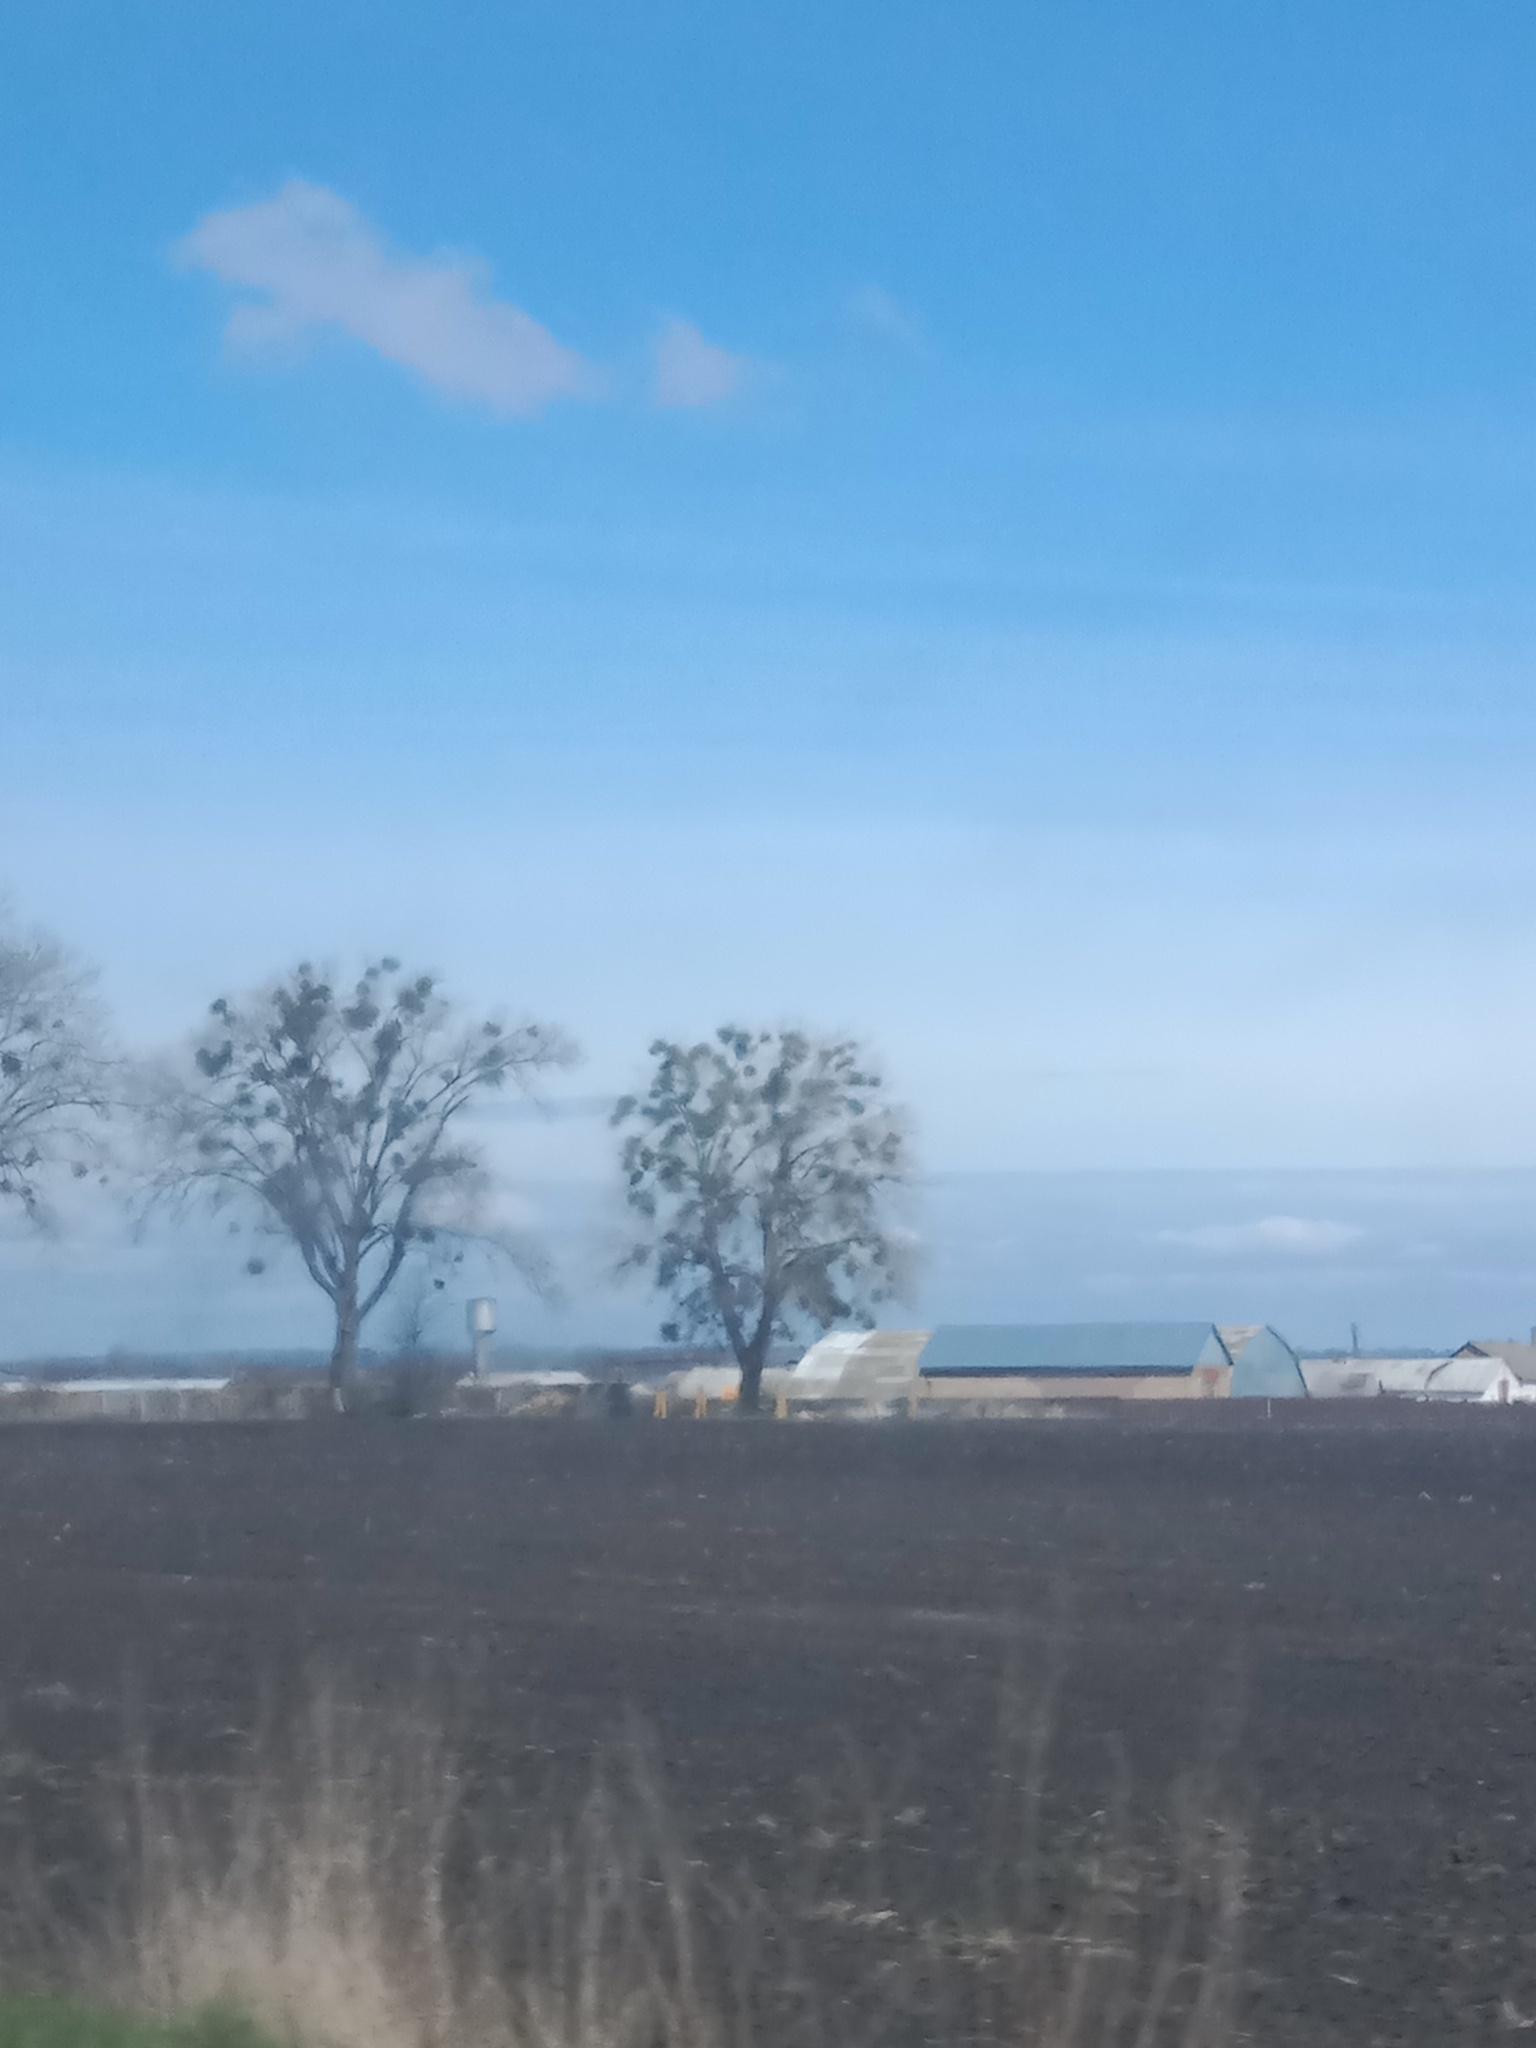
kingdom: Plantae
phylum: Tracheophyta
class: Magnoliopsida
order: Santalales
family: Viscaceae
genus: Viscum
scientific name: Viscum album
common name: Mistletoe
